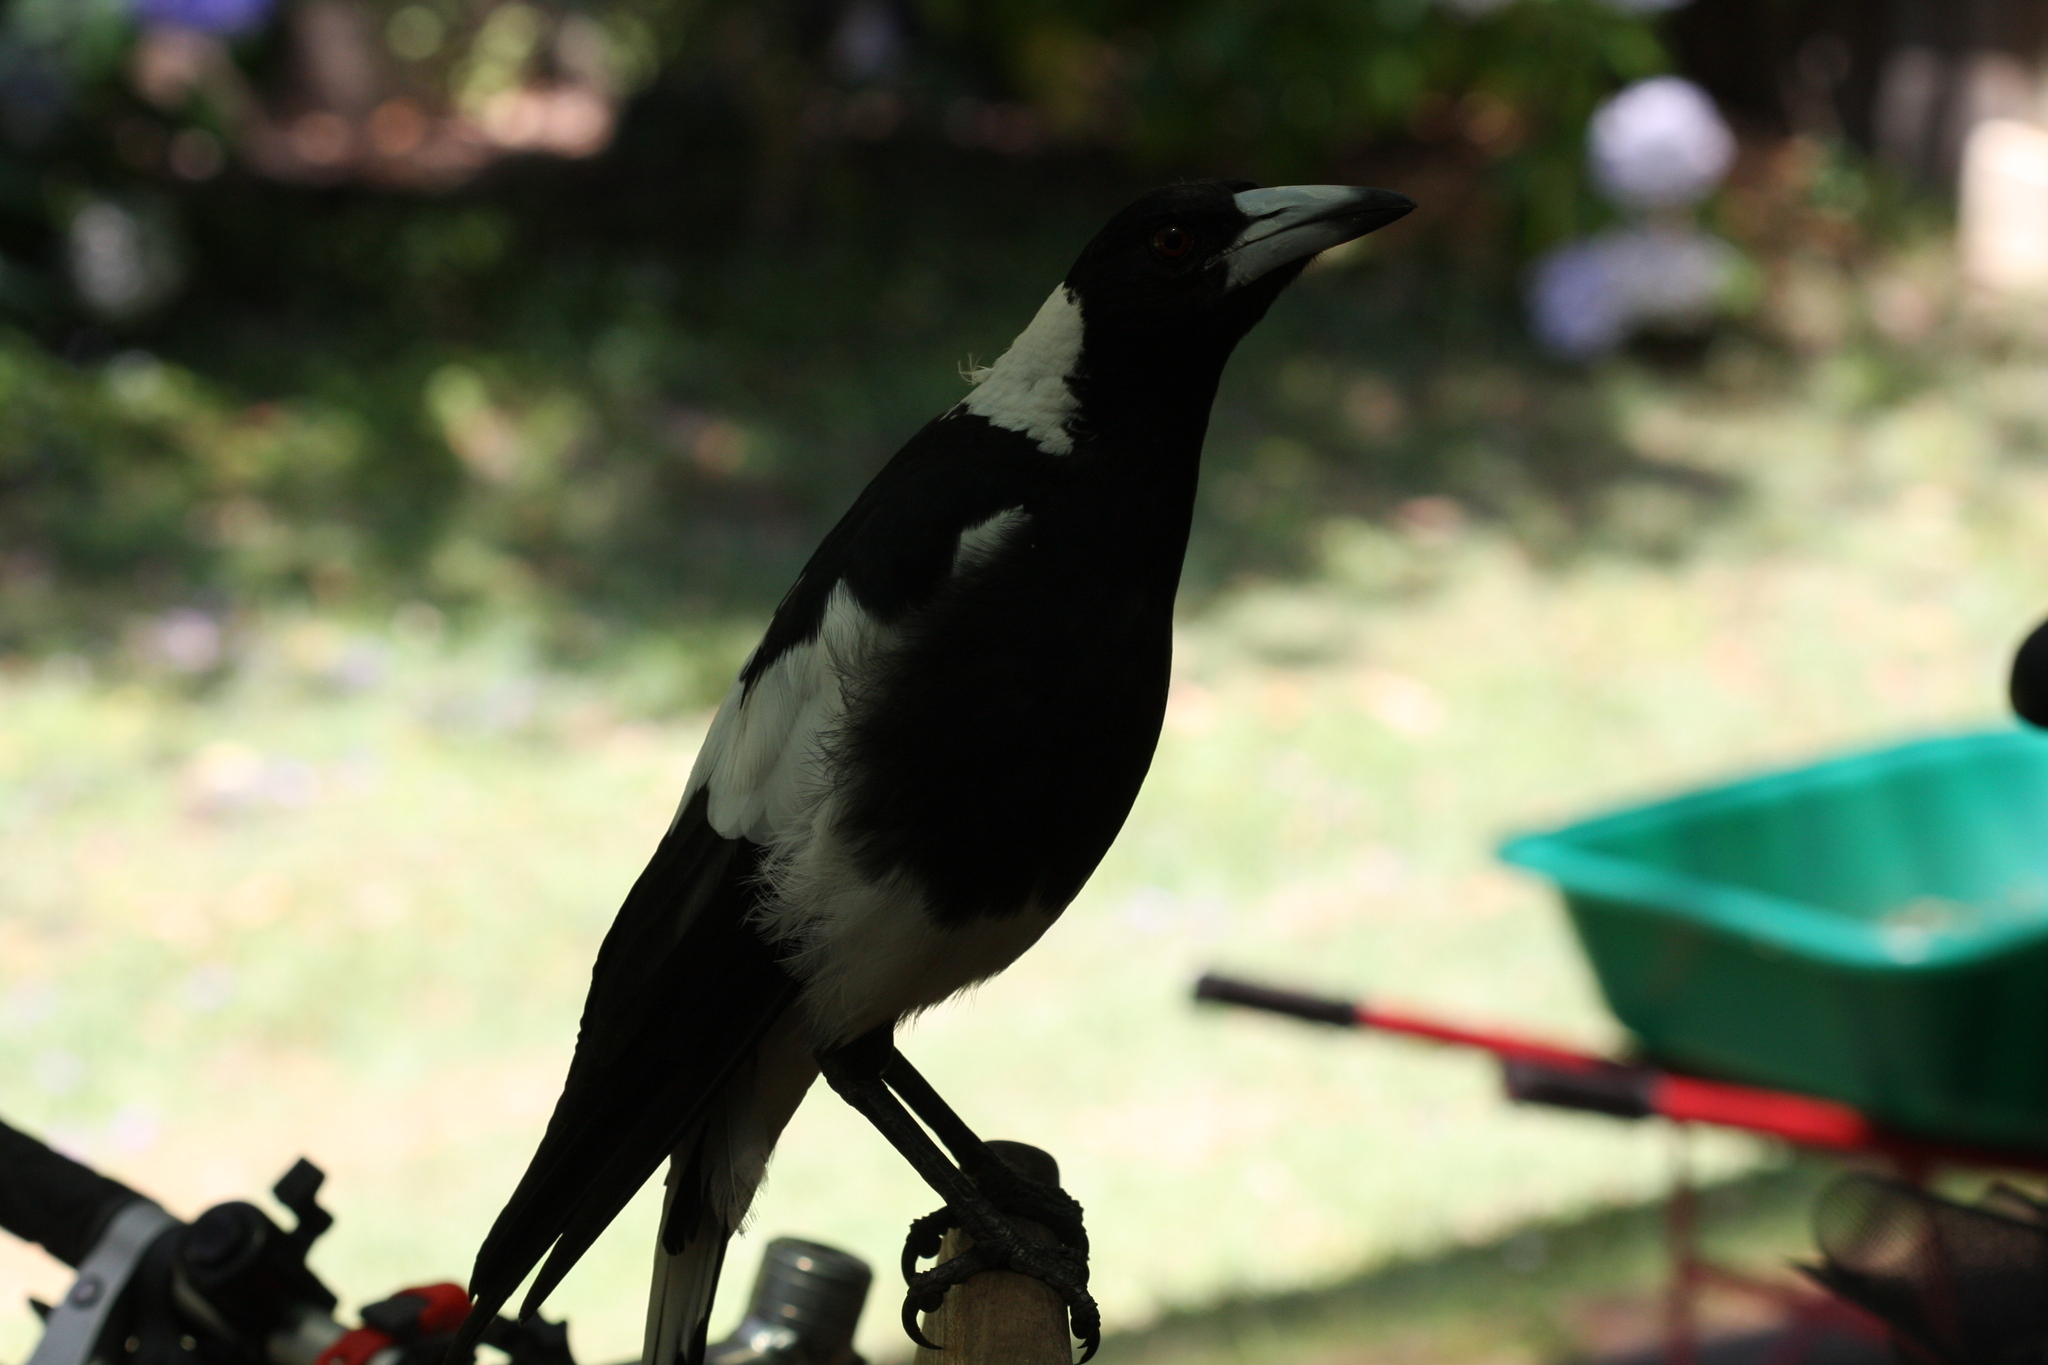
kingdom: Animalia
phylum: Chordata
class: Aves
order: Passeriformes
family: Cracticidae
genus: Gymnorhina
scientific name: Gymnorhina tibicen
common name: Australian magpie
